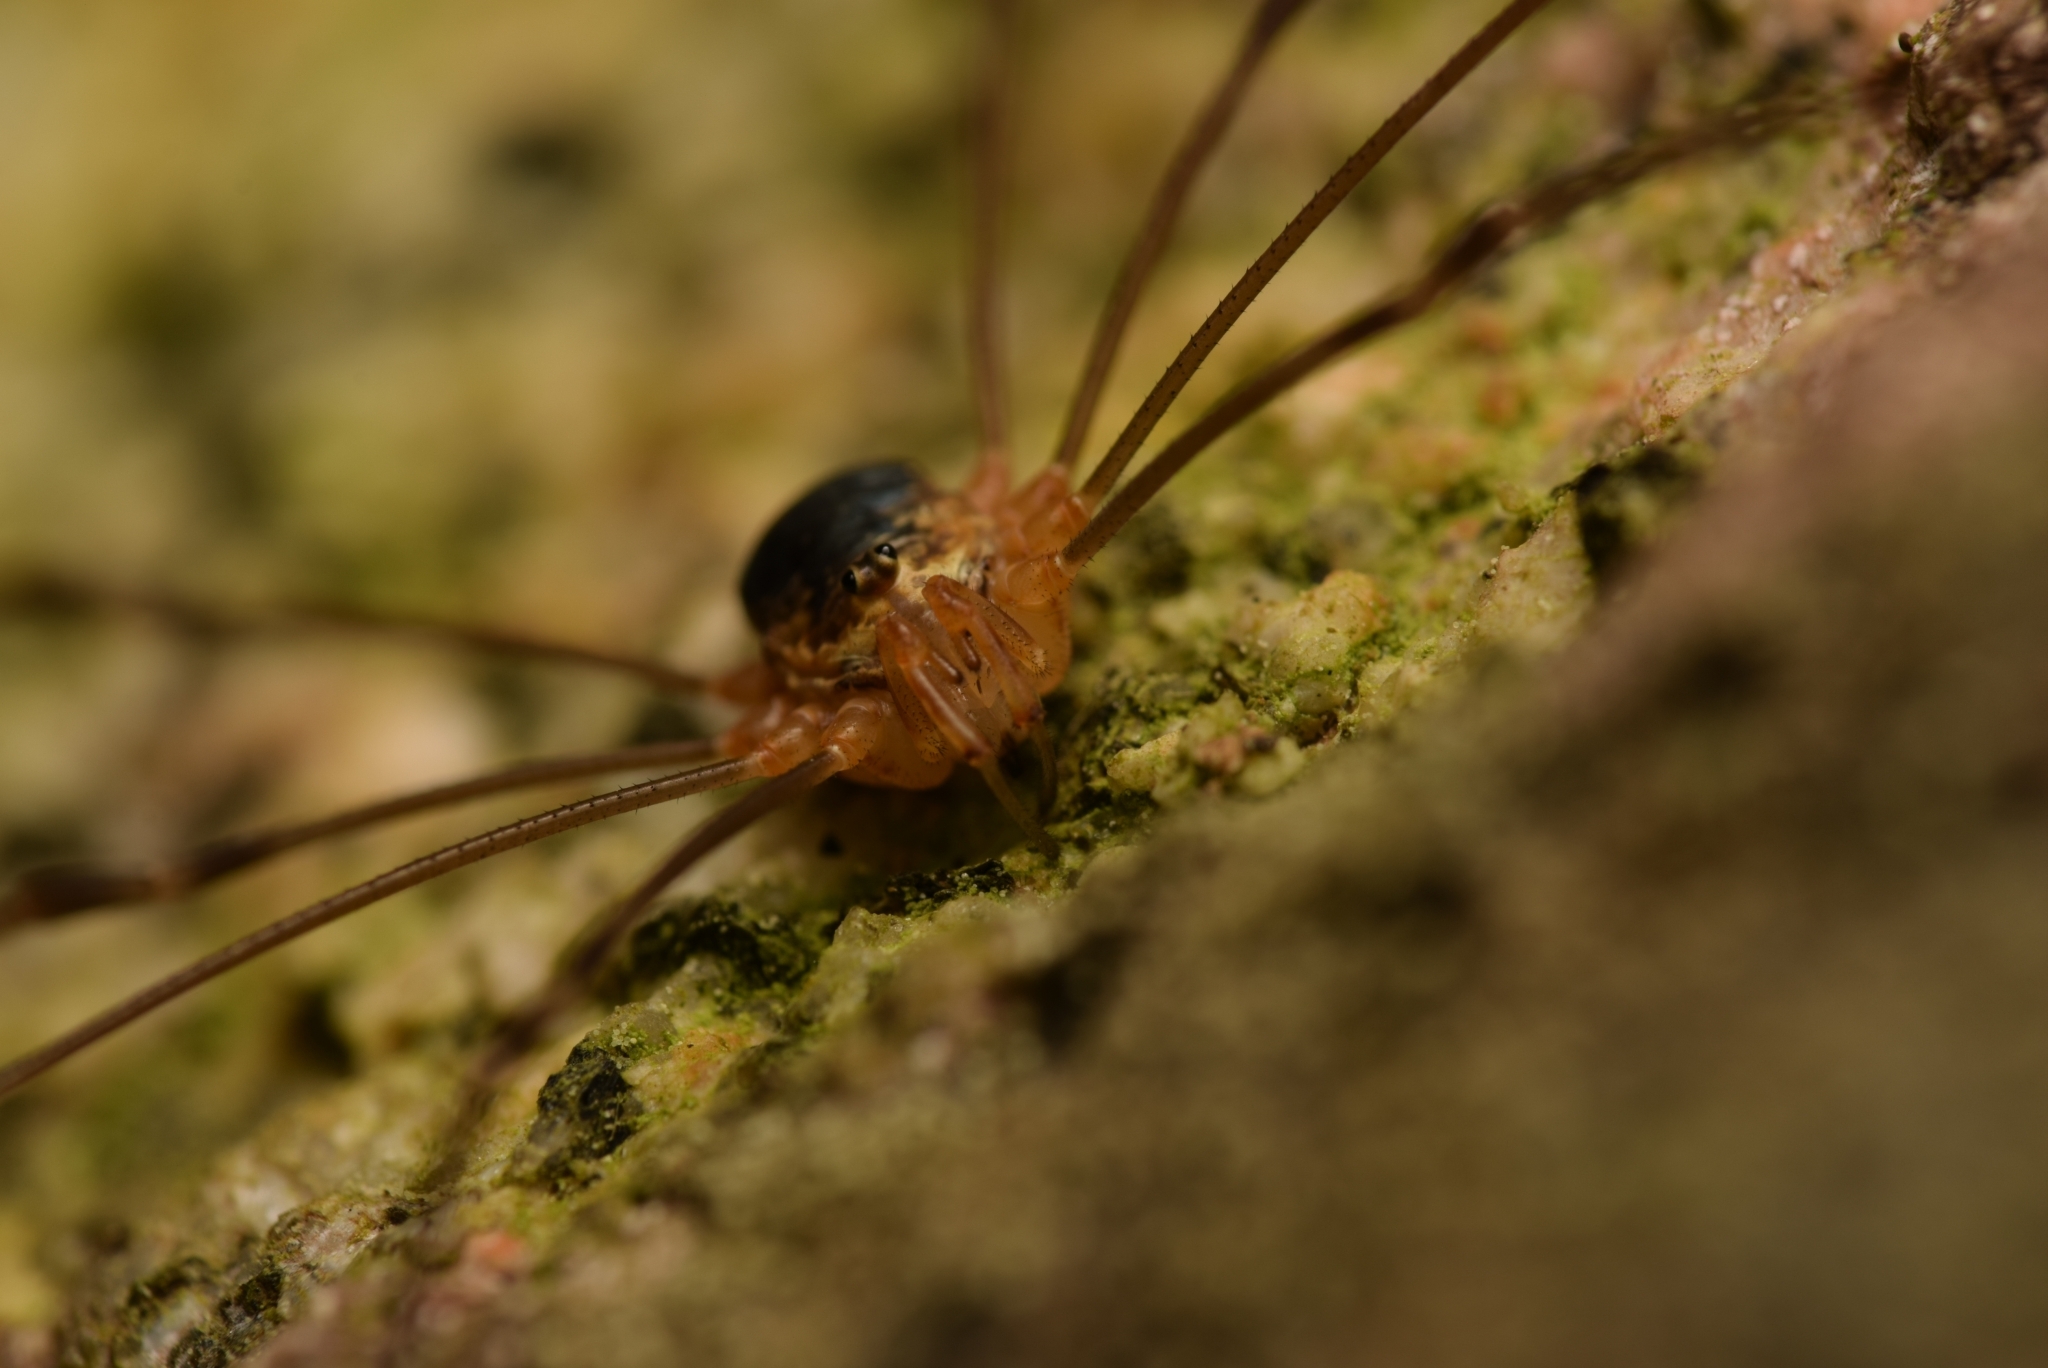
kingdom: Animalia
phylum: Arthropoda
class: Arachnida
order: Opiliones
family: Phalangiidae
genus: Dicranopalpus
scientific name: Dicranopalpus catariegensis
